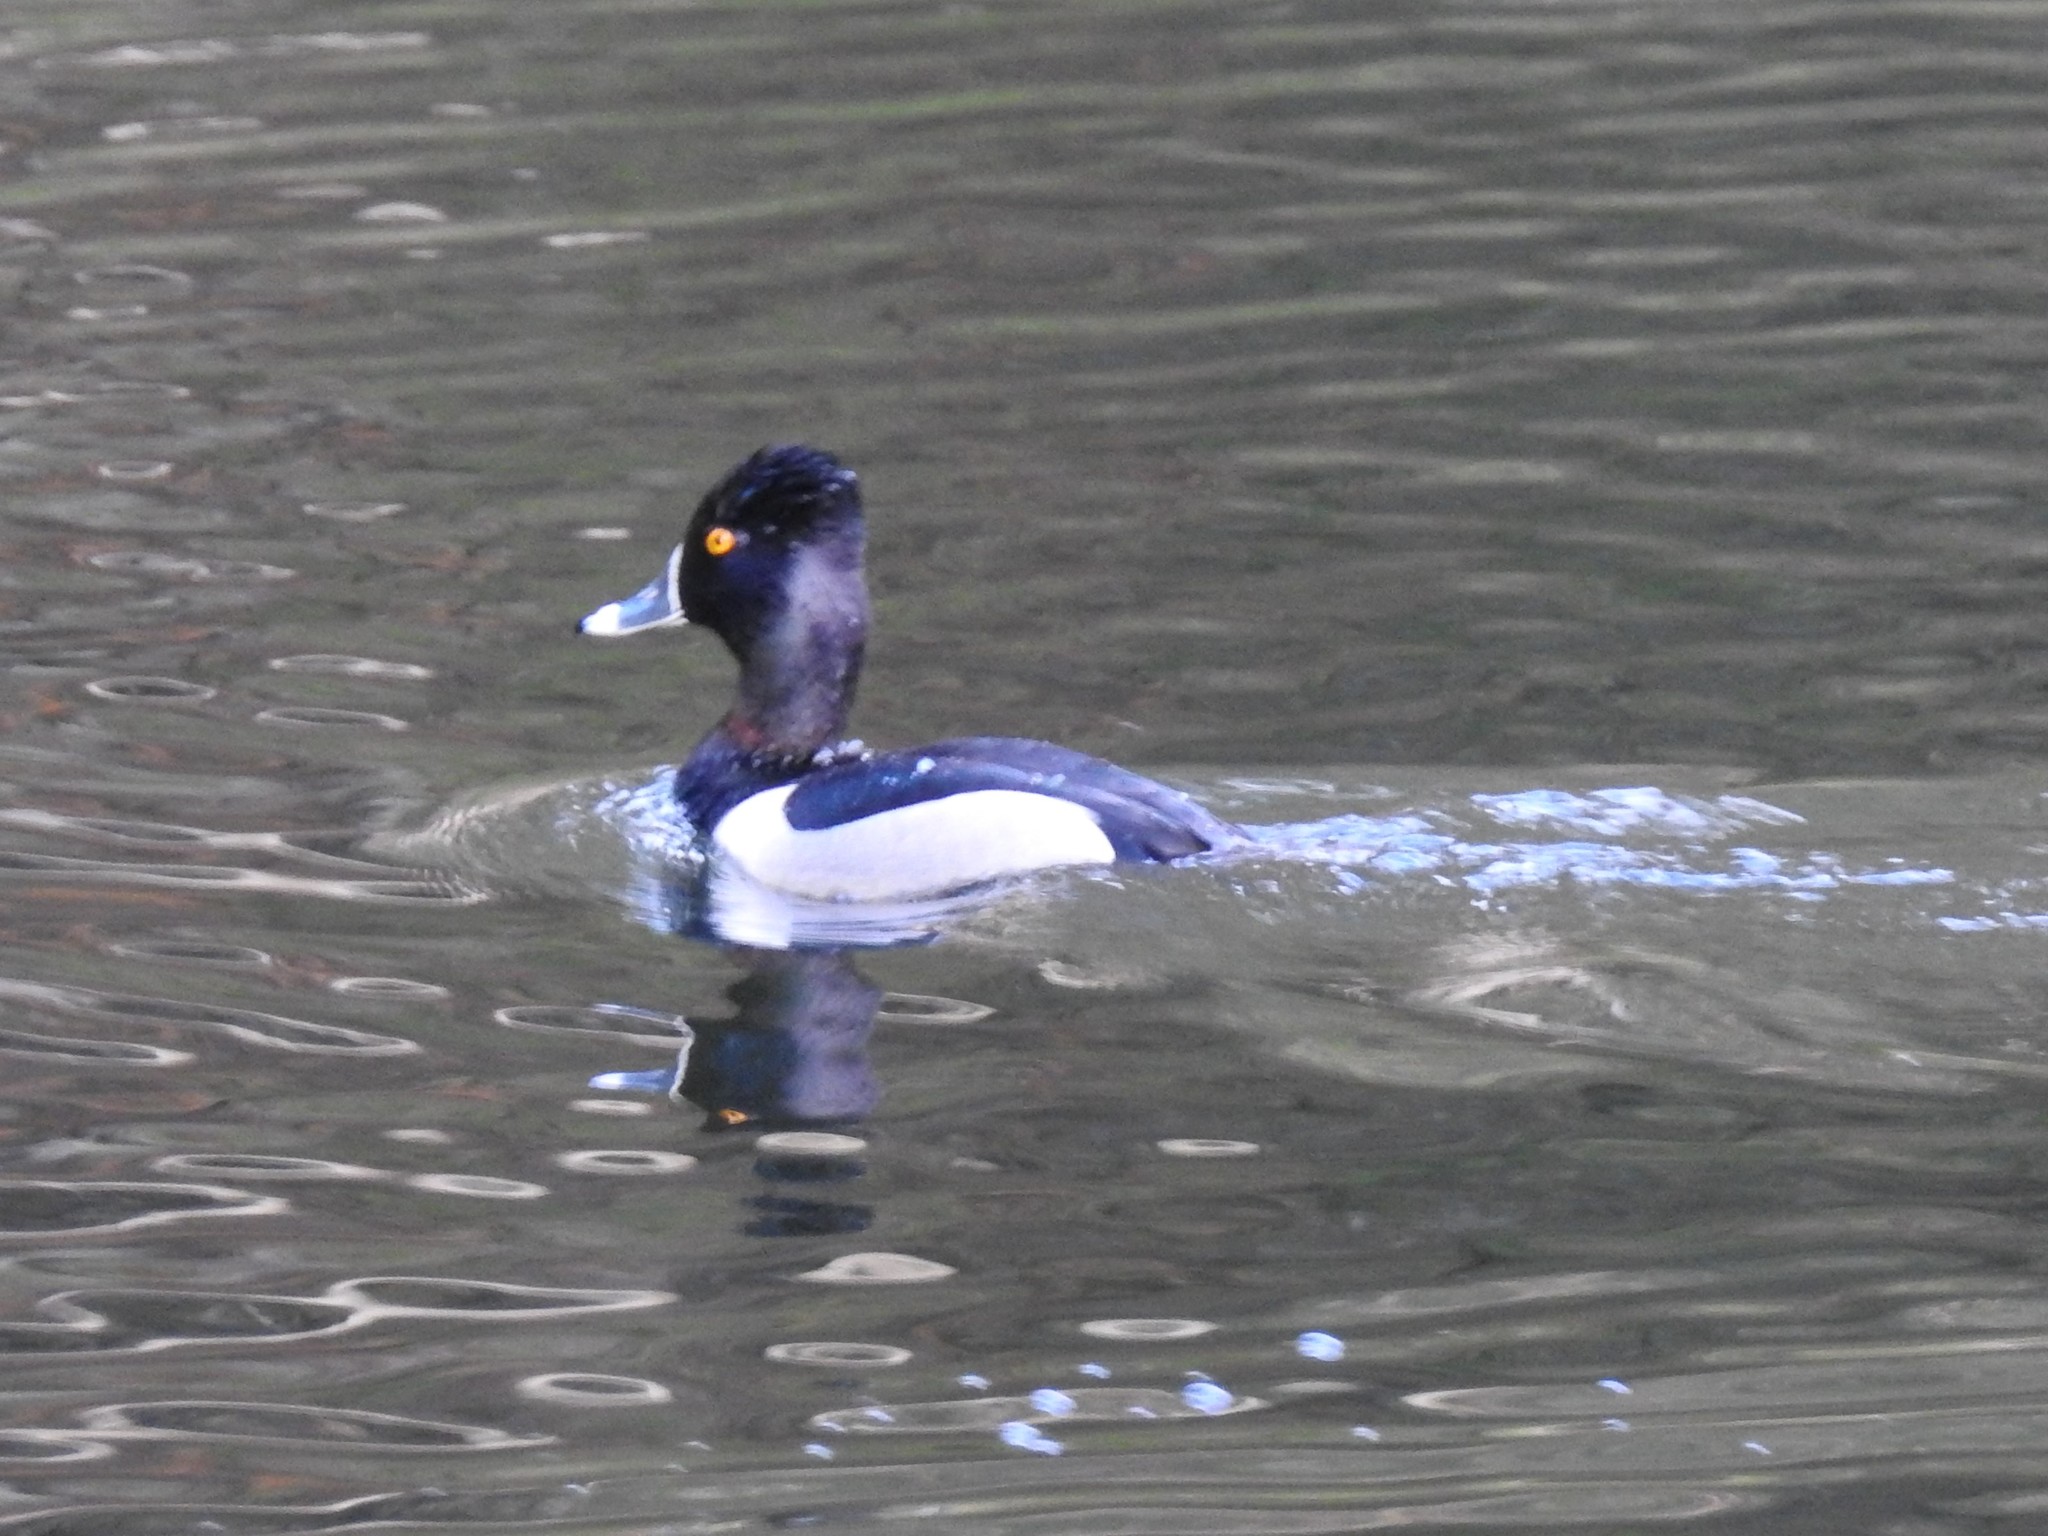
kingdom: Animalia
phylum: Chordata
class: Aves
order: Anseriformes
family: Anatidae
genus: Aythya
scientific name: Aythya collaris
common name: Ring-necked duck
